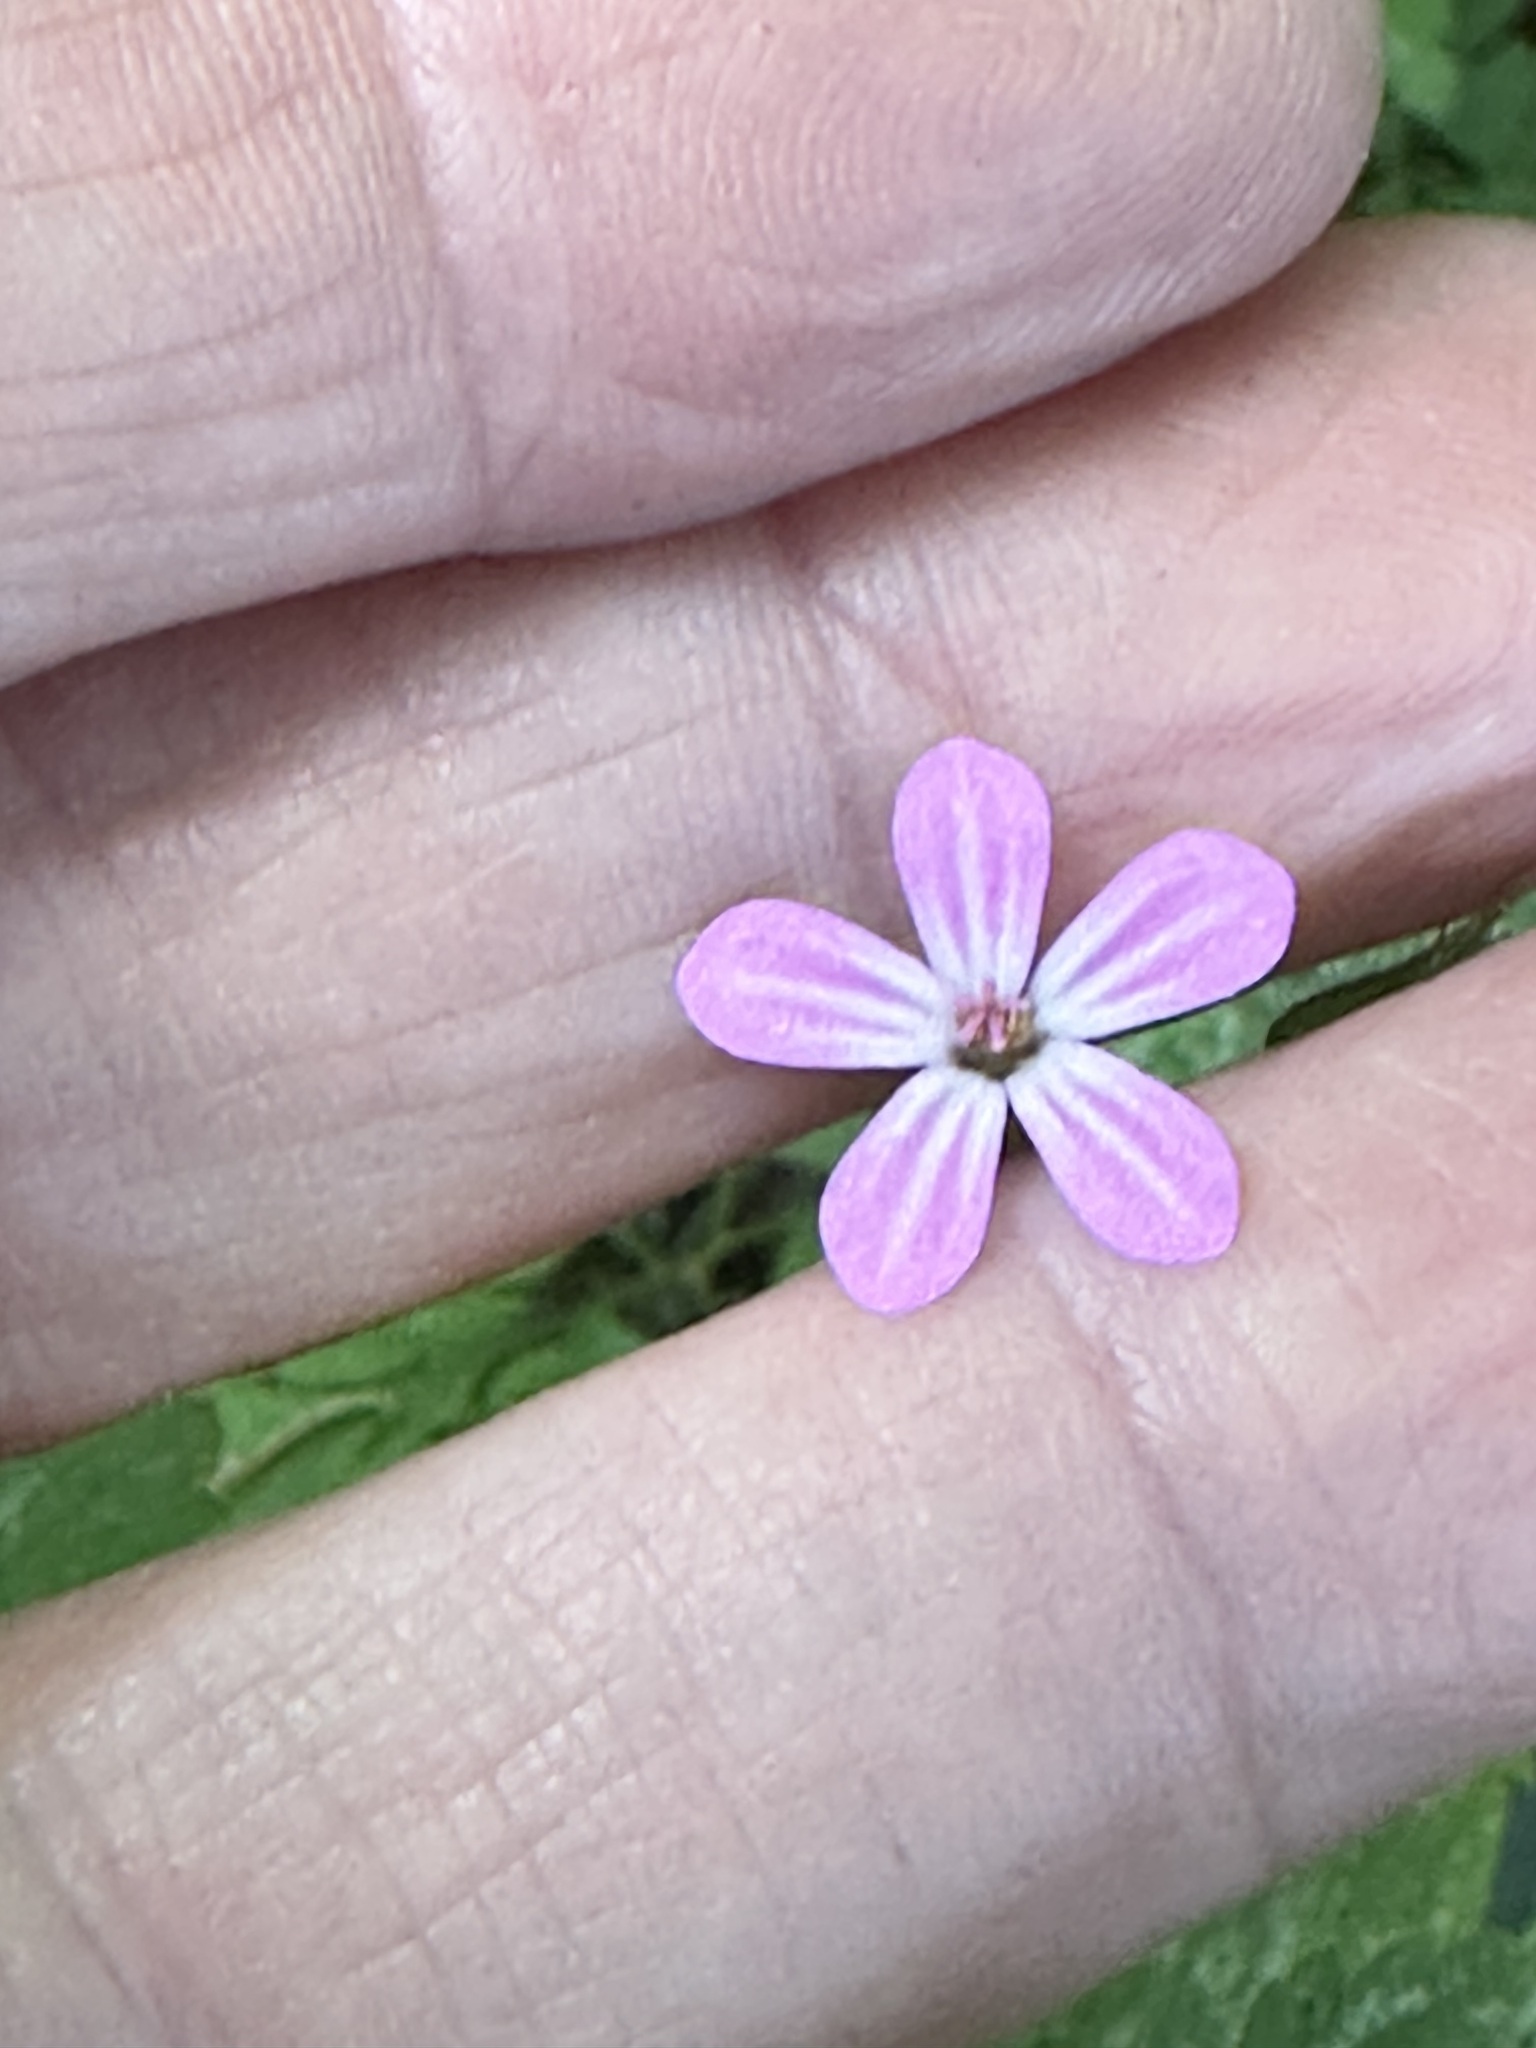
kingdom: Plantae
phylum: Tracheophyta
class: Magnoliopsida
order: Geraniales
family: Geraniaceae
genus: Geranium
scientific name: Geranium robertianum
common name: Herb-robert
